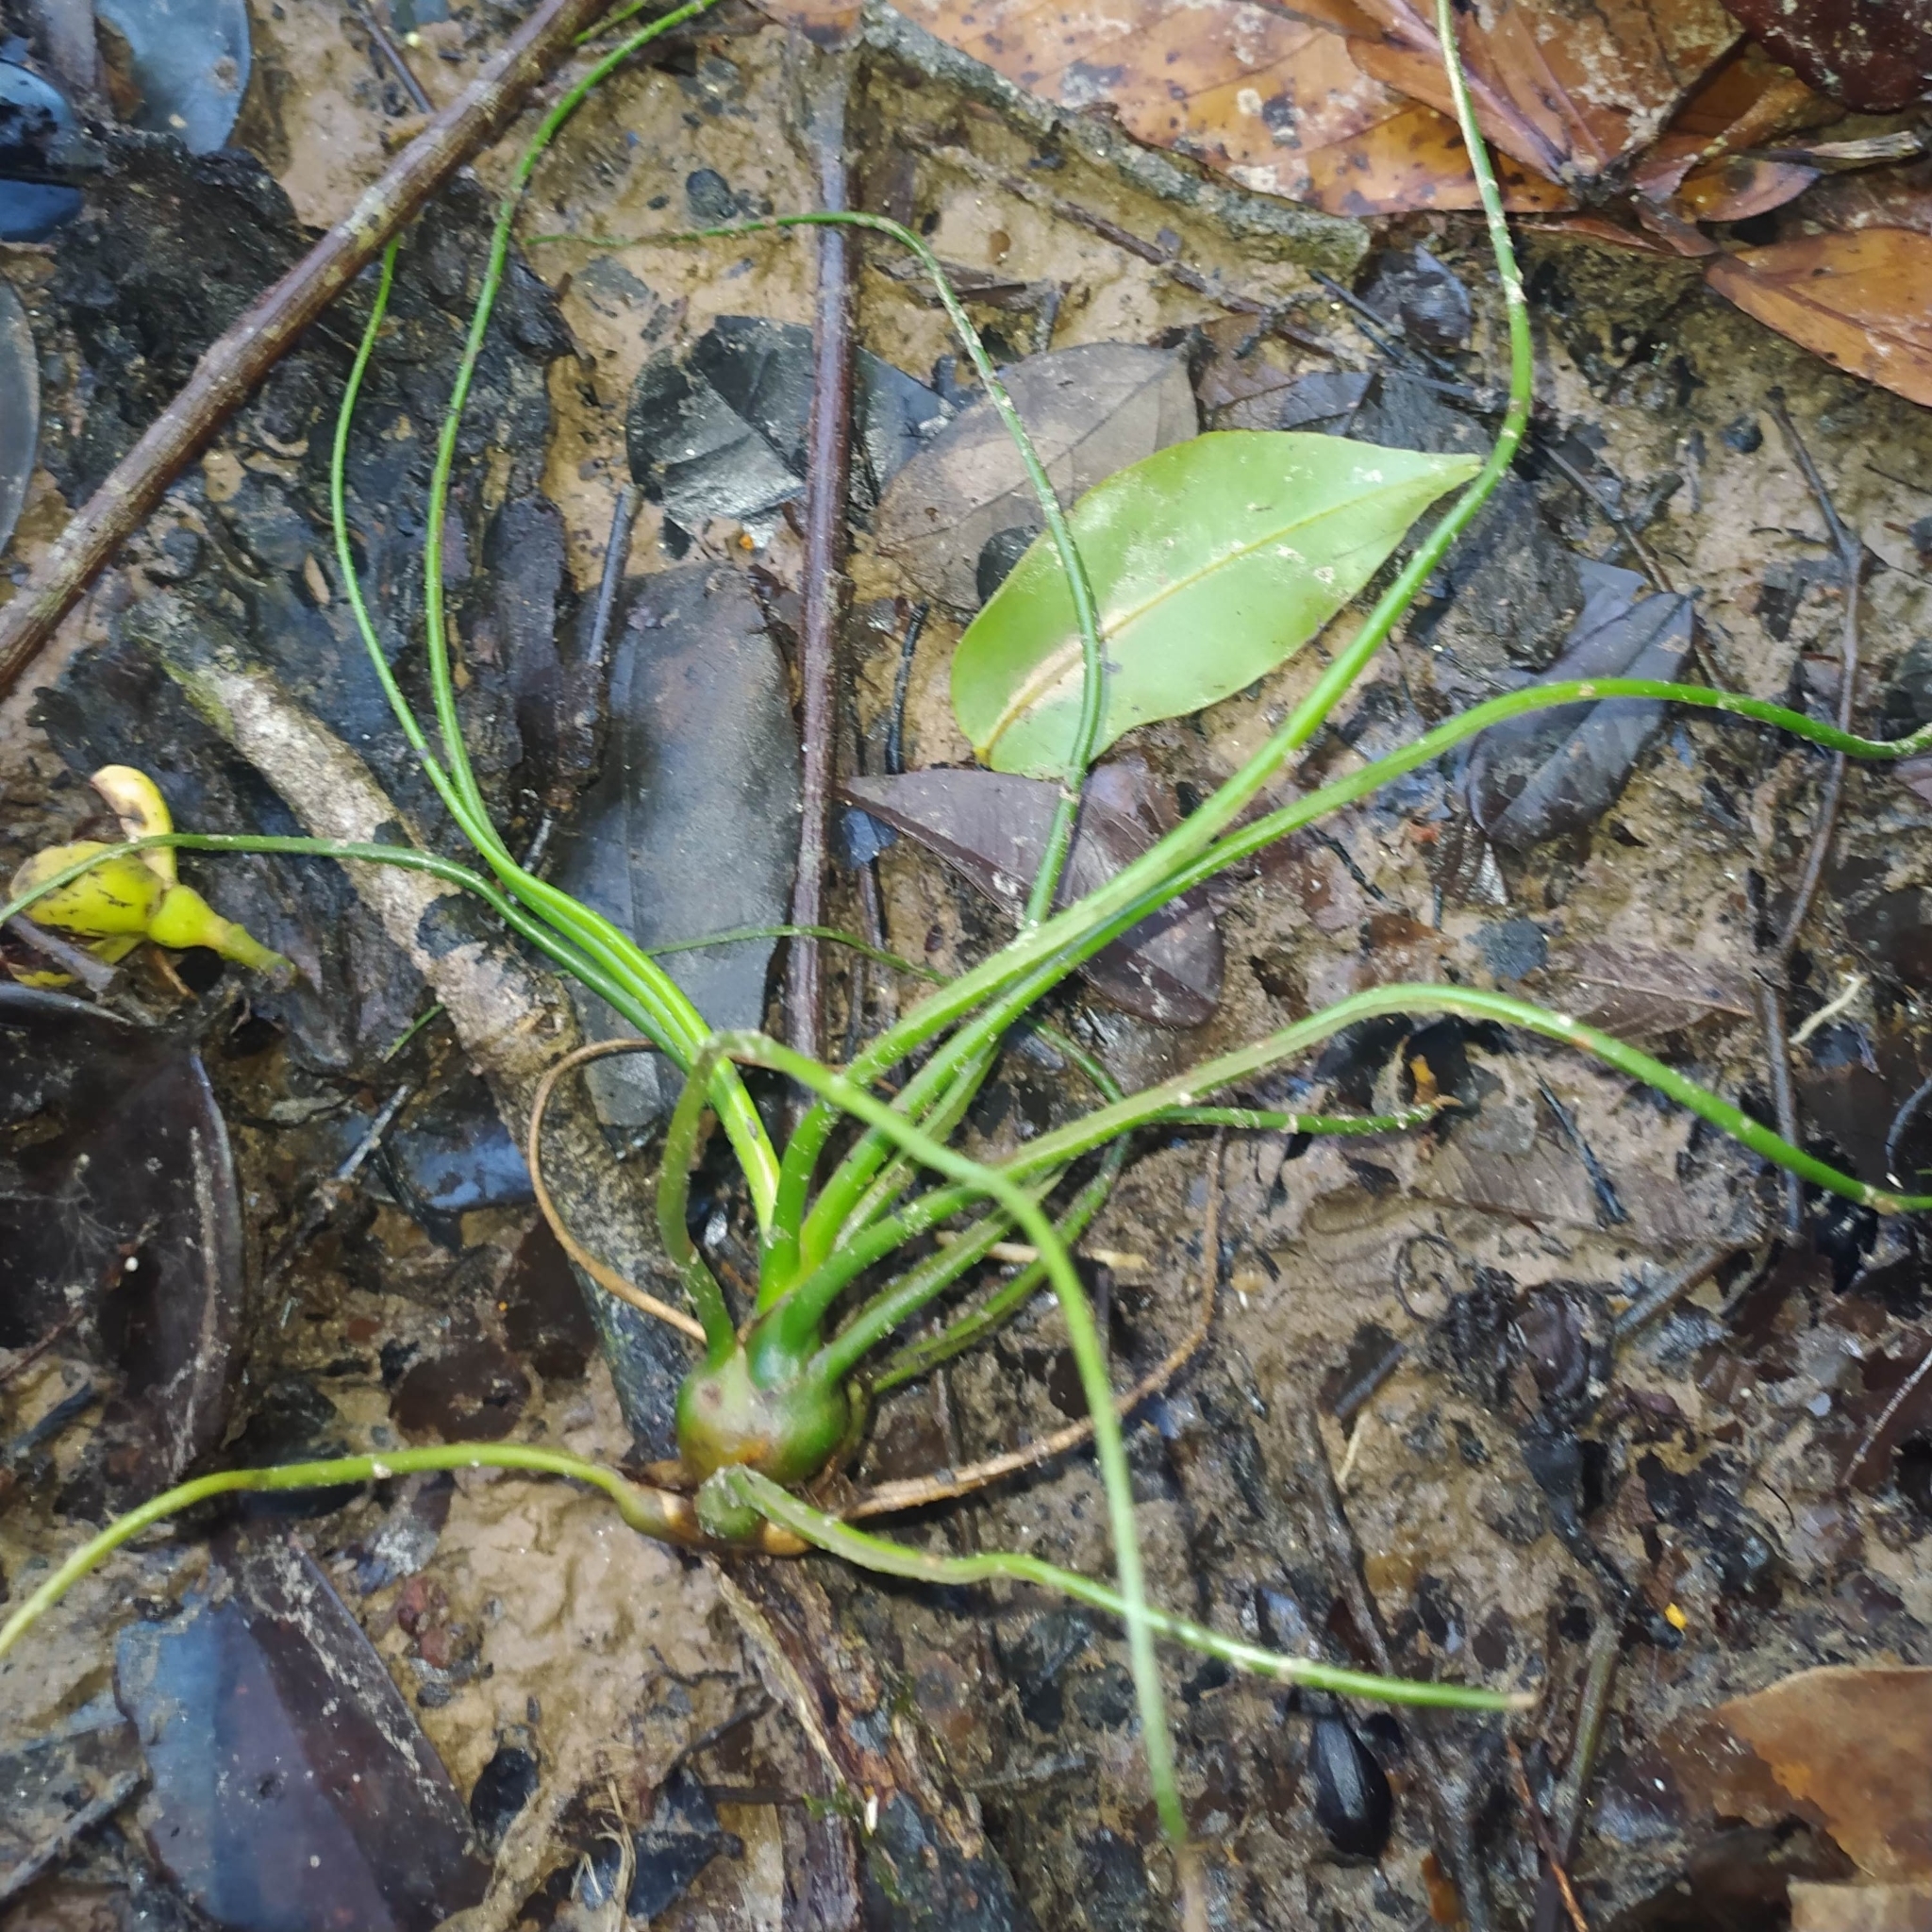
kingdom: Plantae
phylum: Tracheophyta
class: Liliopsida
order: Poales
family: Bromeliaceae
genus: Tillandsia
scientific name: Tillandsia bulbosa
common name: Bulbous airplant
